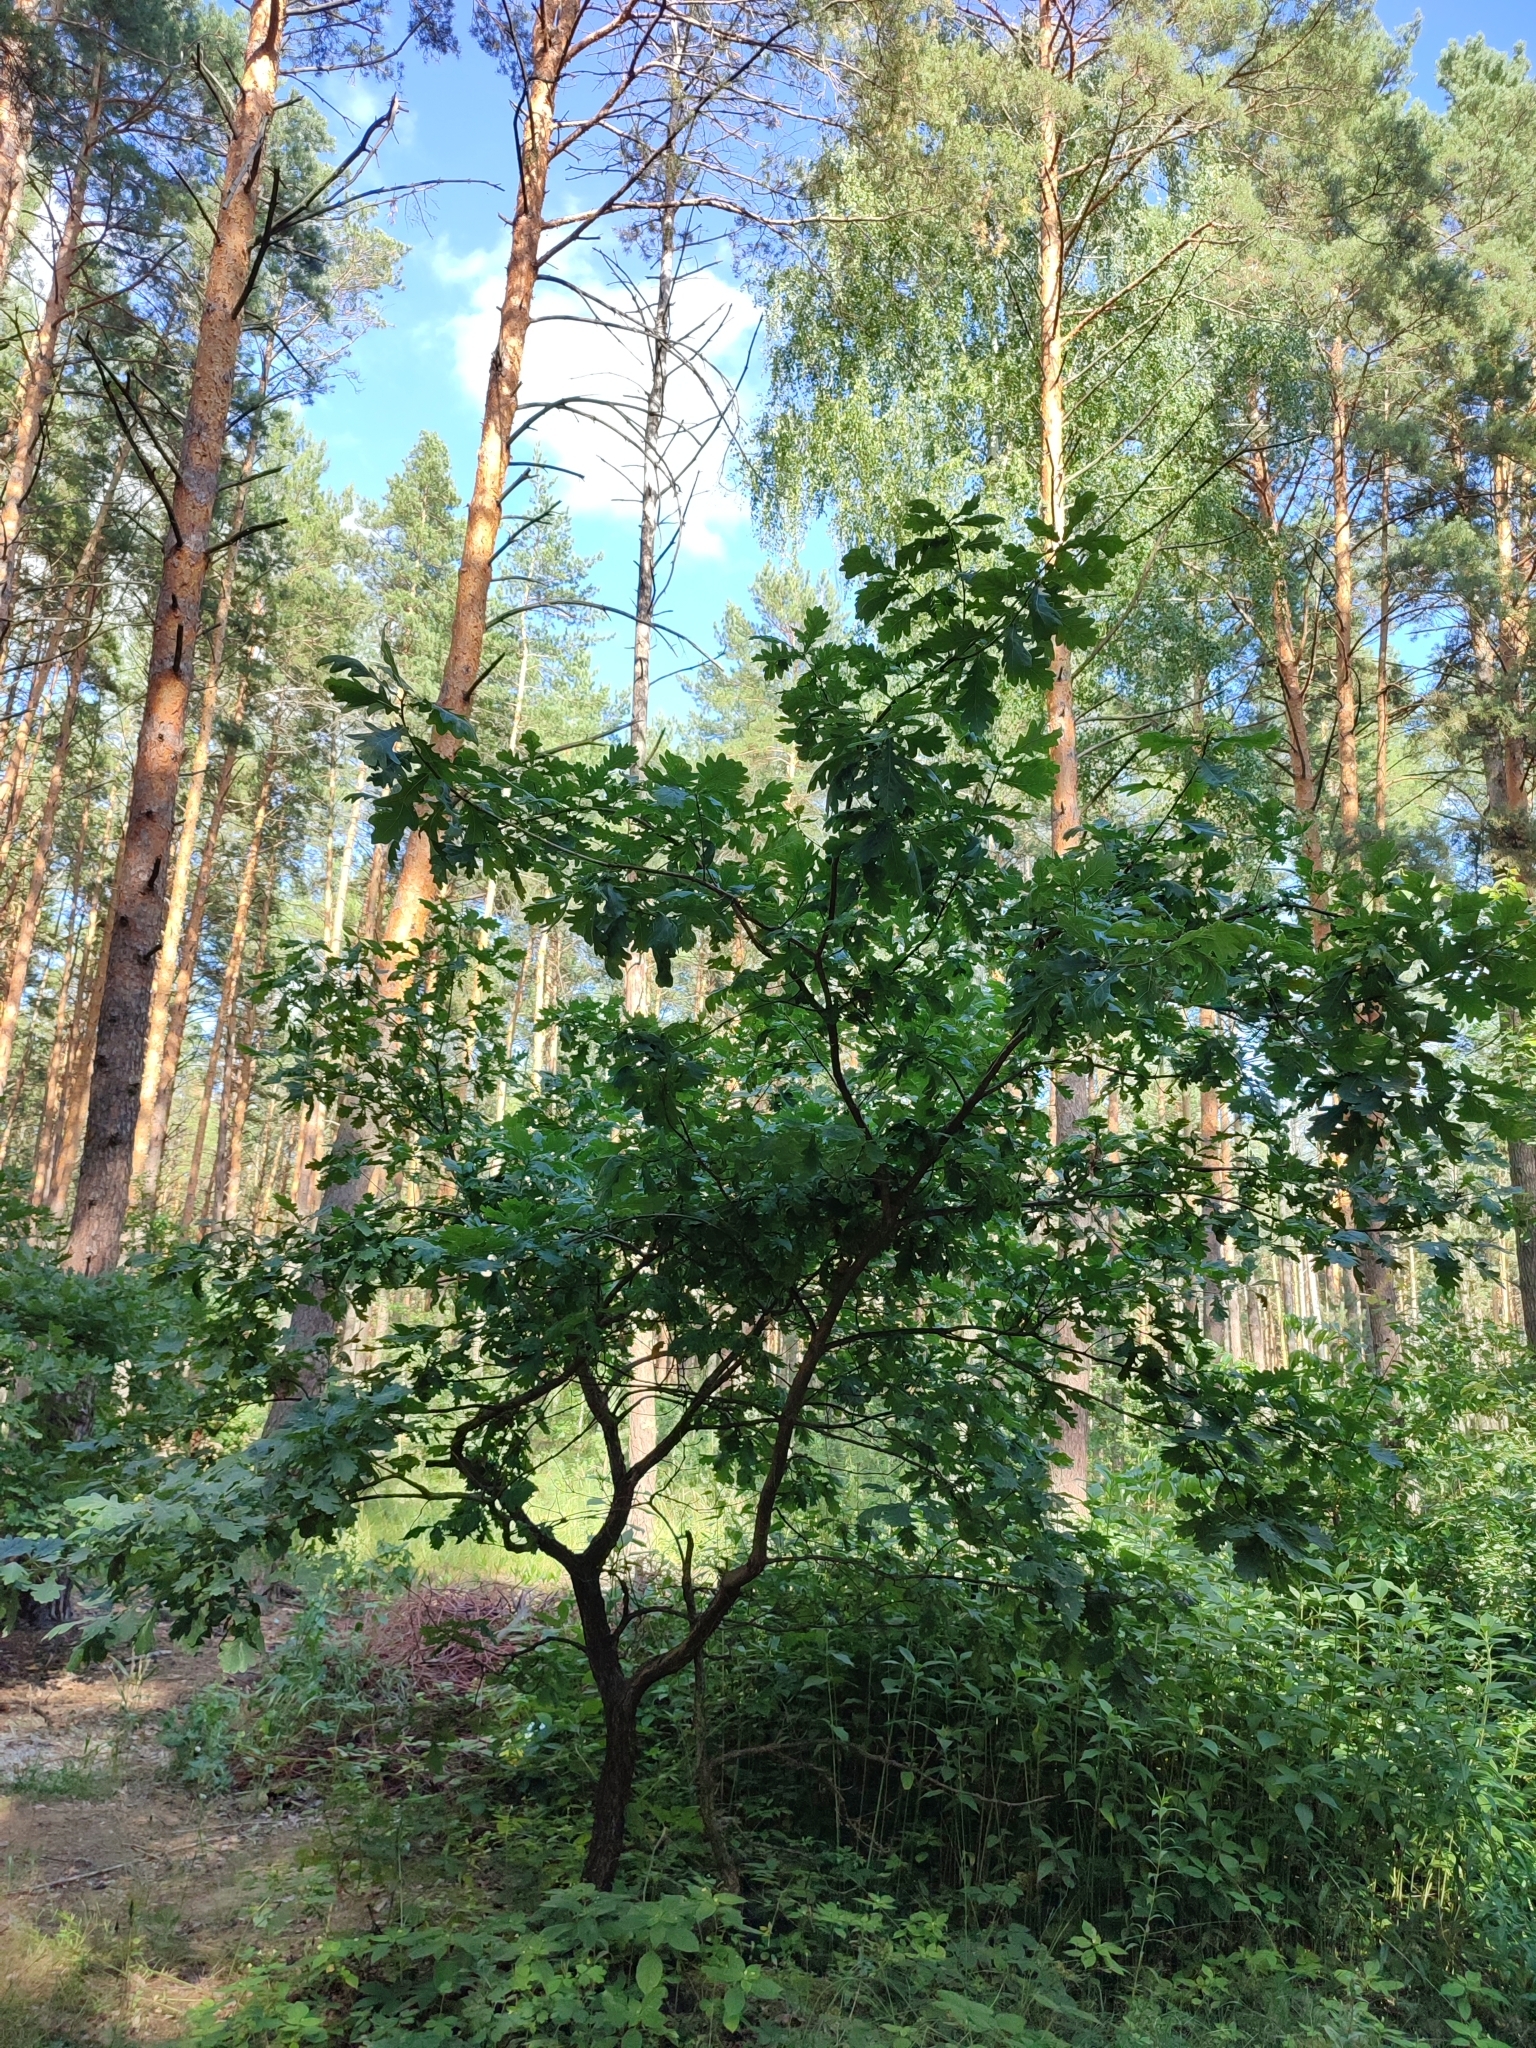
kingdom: Plantae
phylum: Tracheophyta
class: Magnoliopsida
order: Fagales
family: Fagaceae
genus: Quercus
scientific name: Quercus robur
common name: Pedunculate oak
